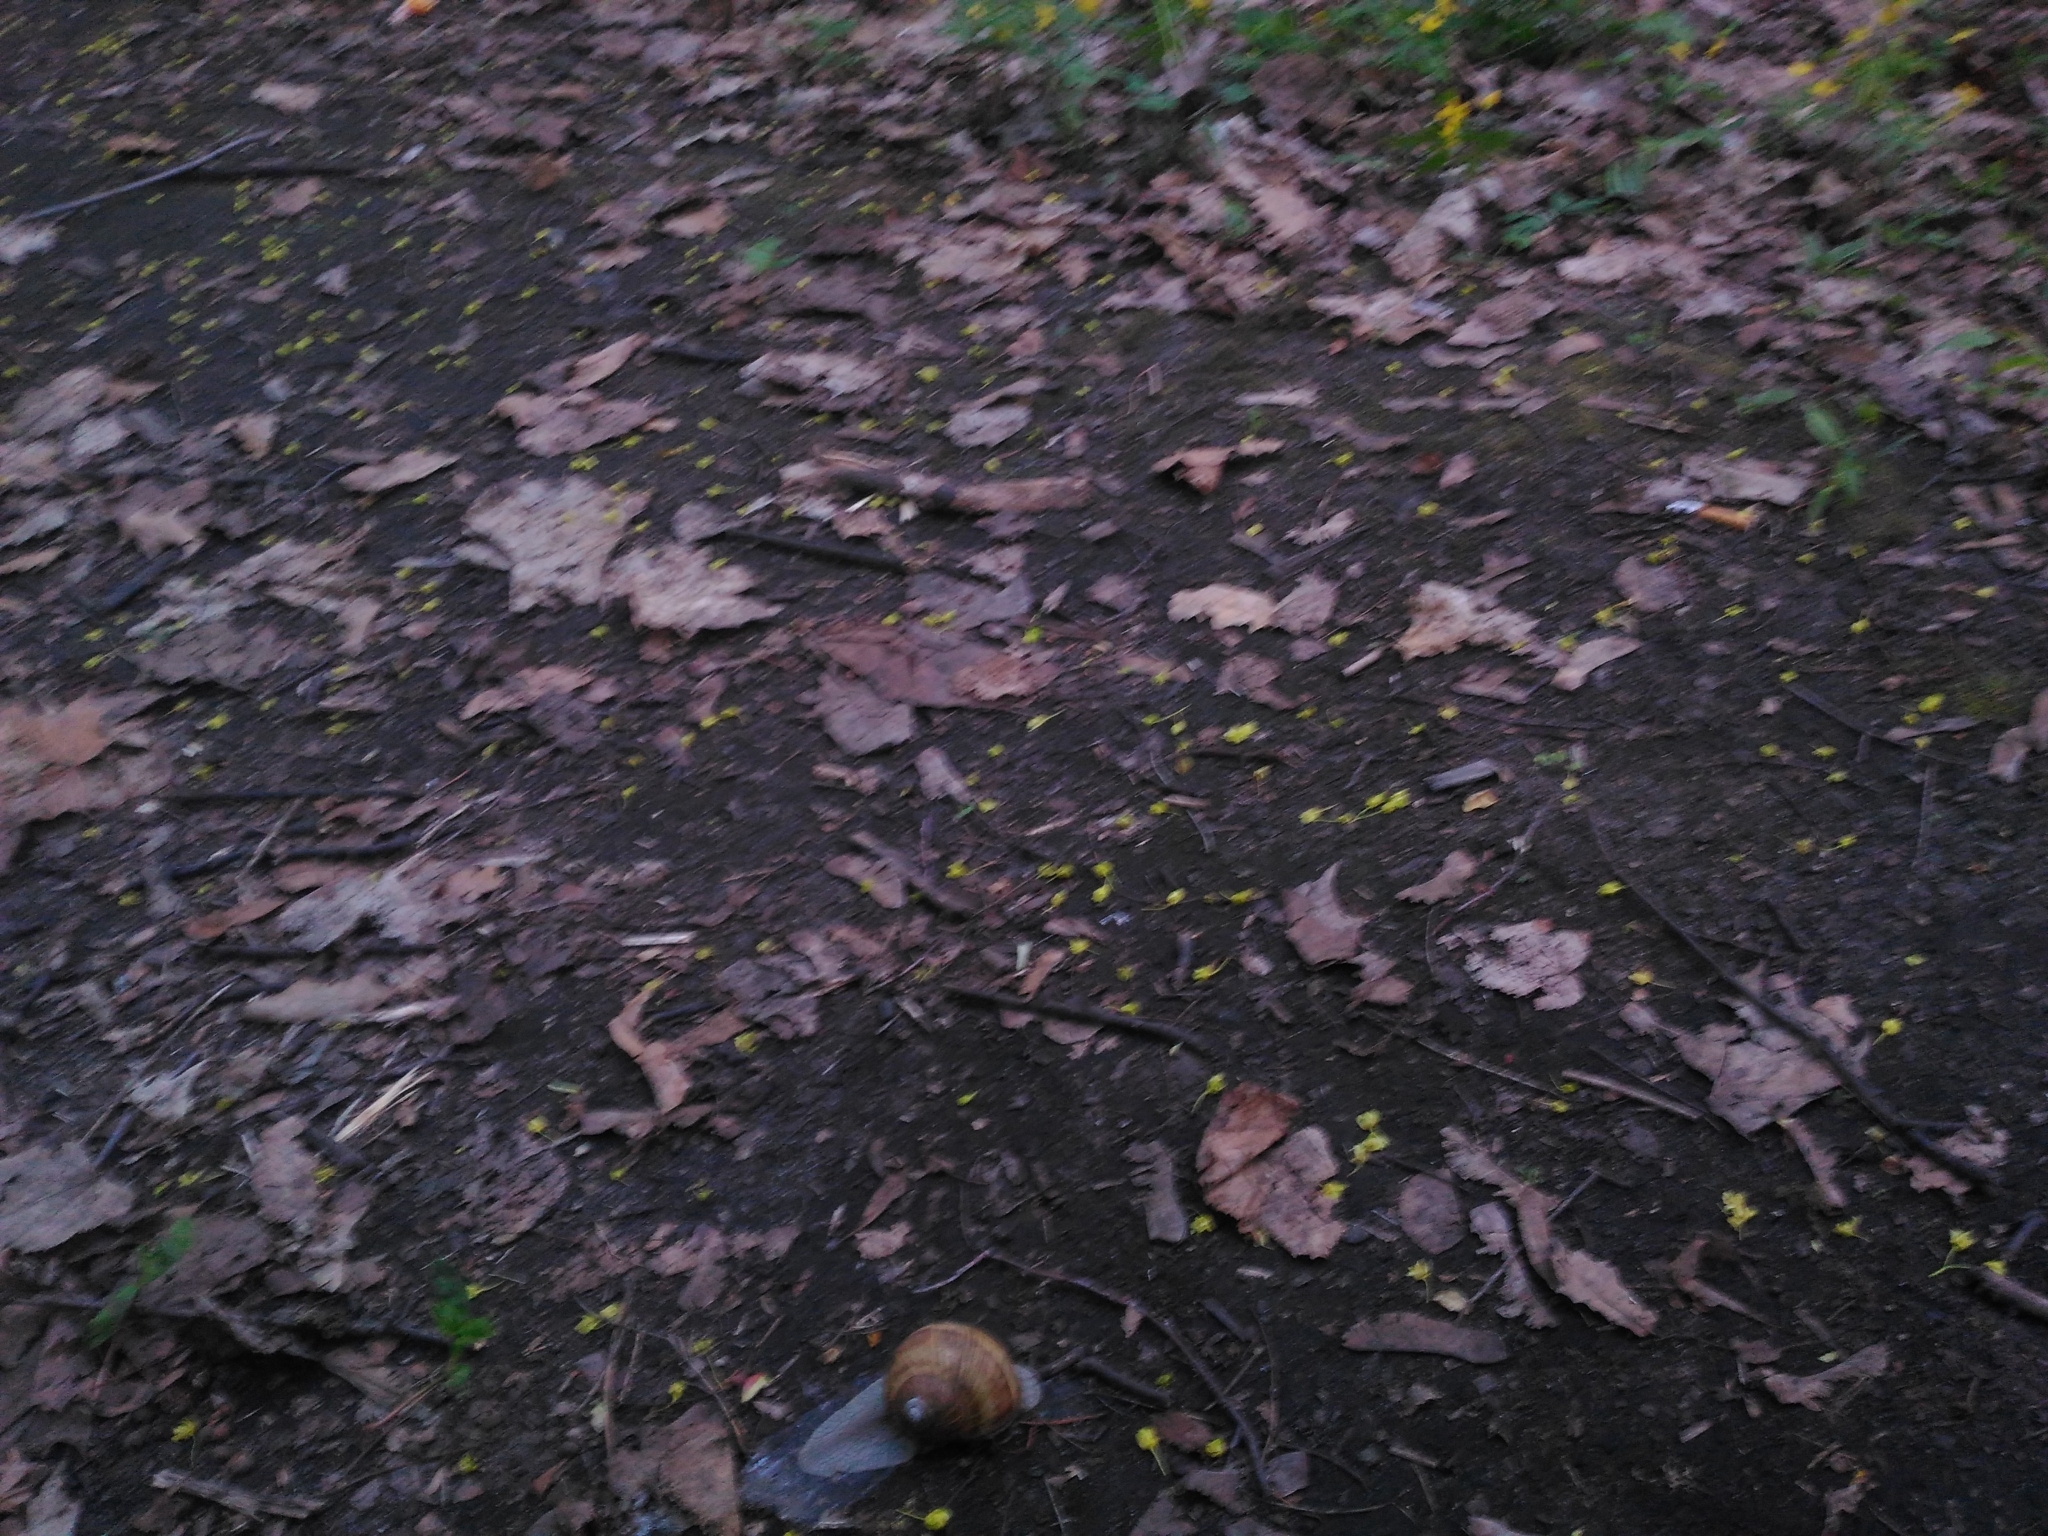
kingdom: Animalia
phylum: Mollusca
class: Gastropoda
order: Stylommatophora
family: Helicidae
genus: Helix
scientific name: Helix thessalica
